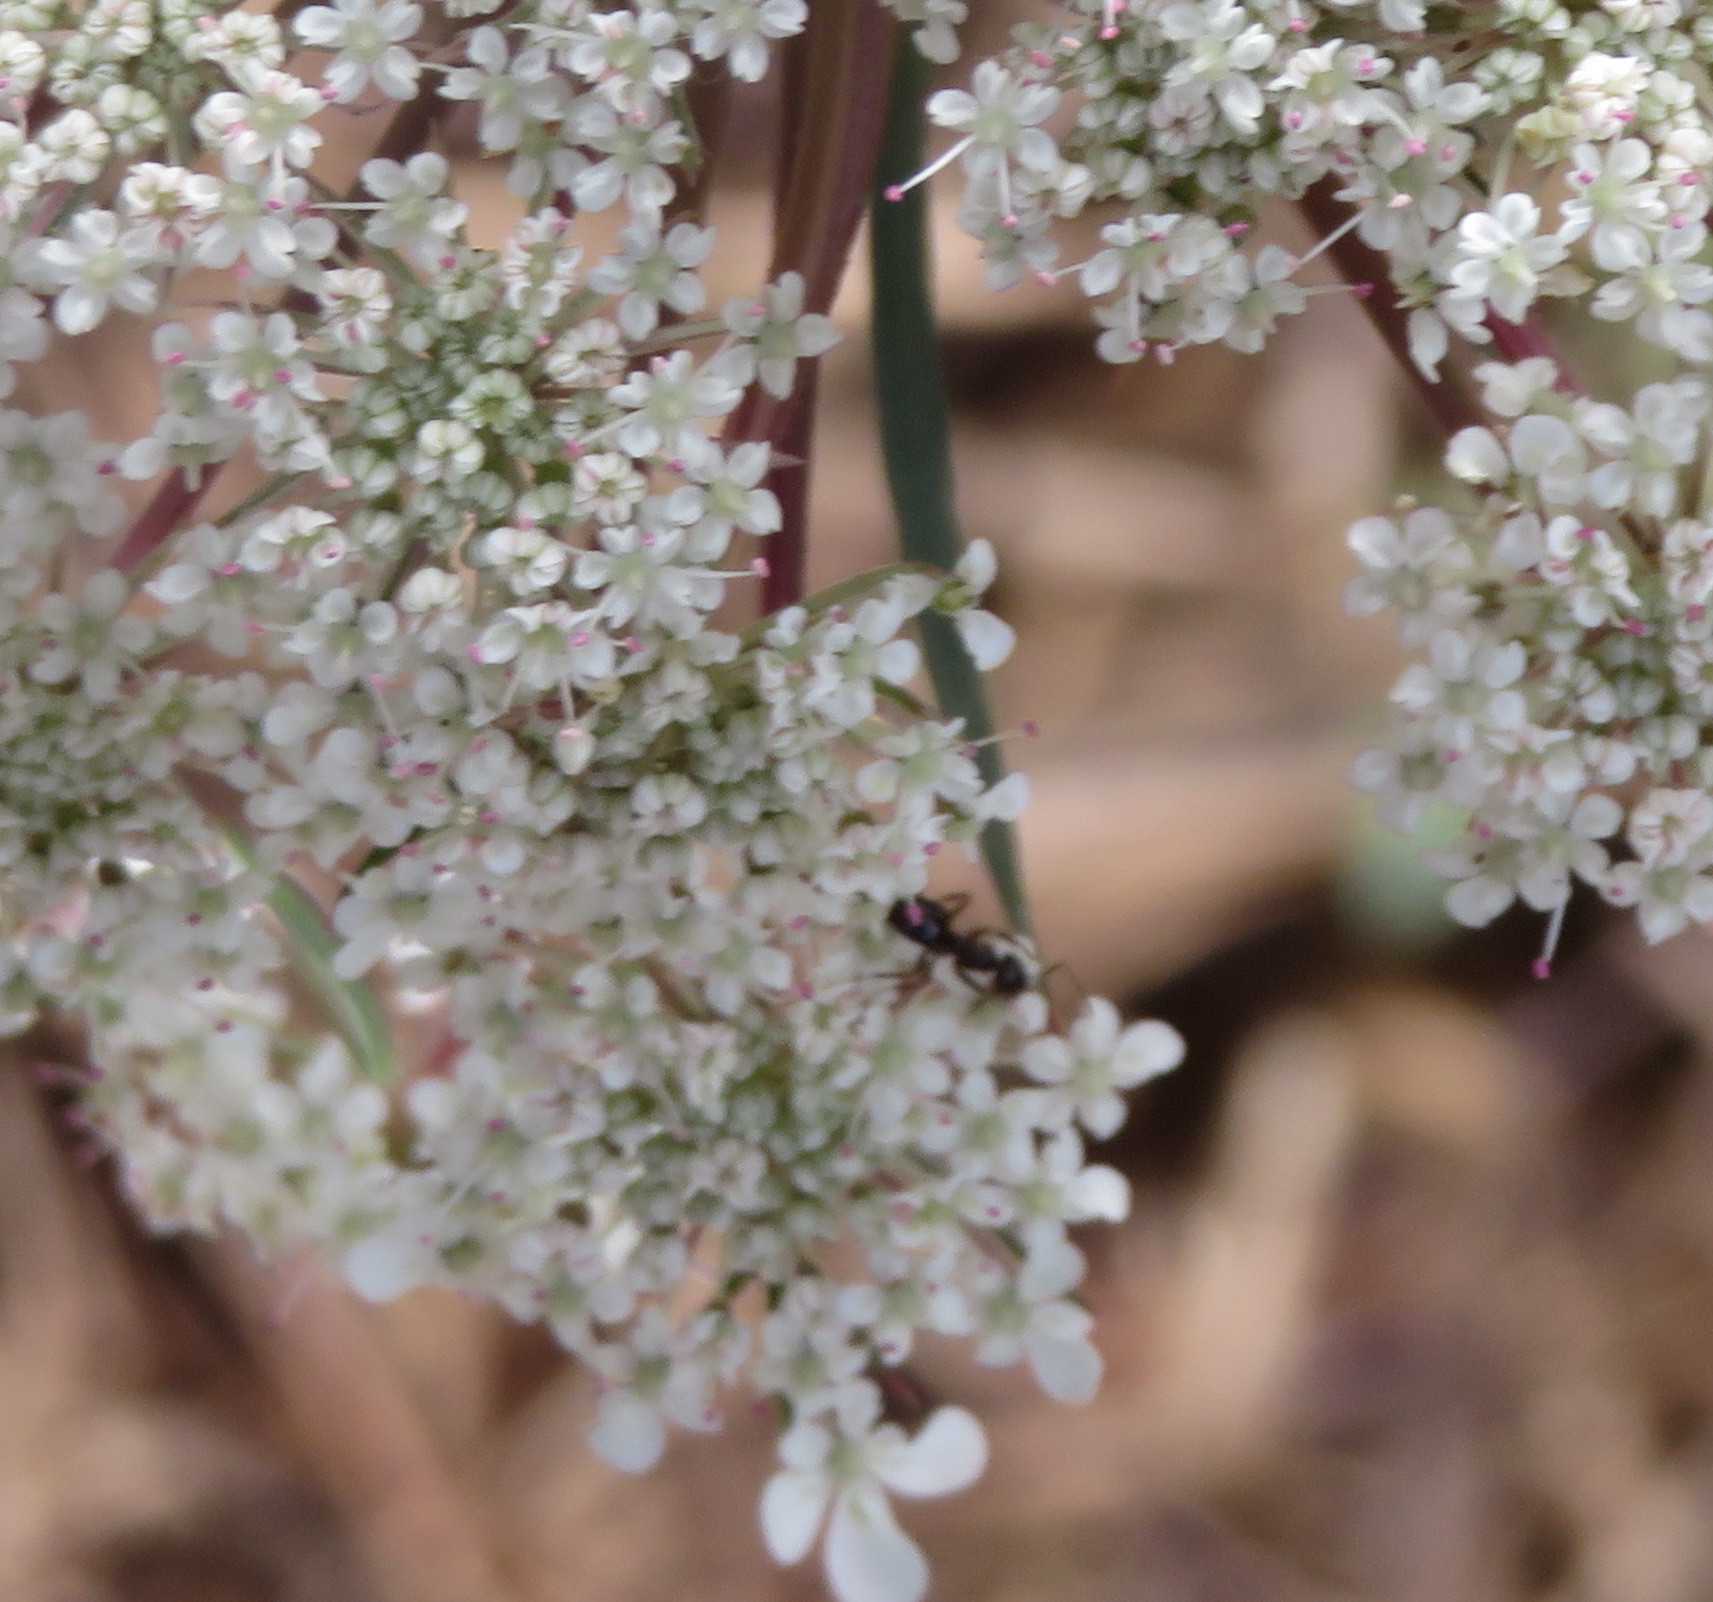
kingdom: Animalia
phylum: Arthropoda
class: Insecta
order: Hymenoptera
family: Formicidae
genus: Ochetellus
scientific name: Ochetellus glaber
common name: Ant
